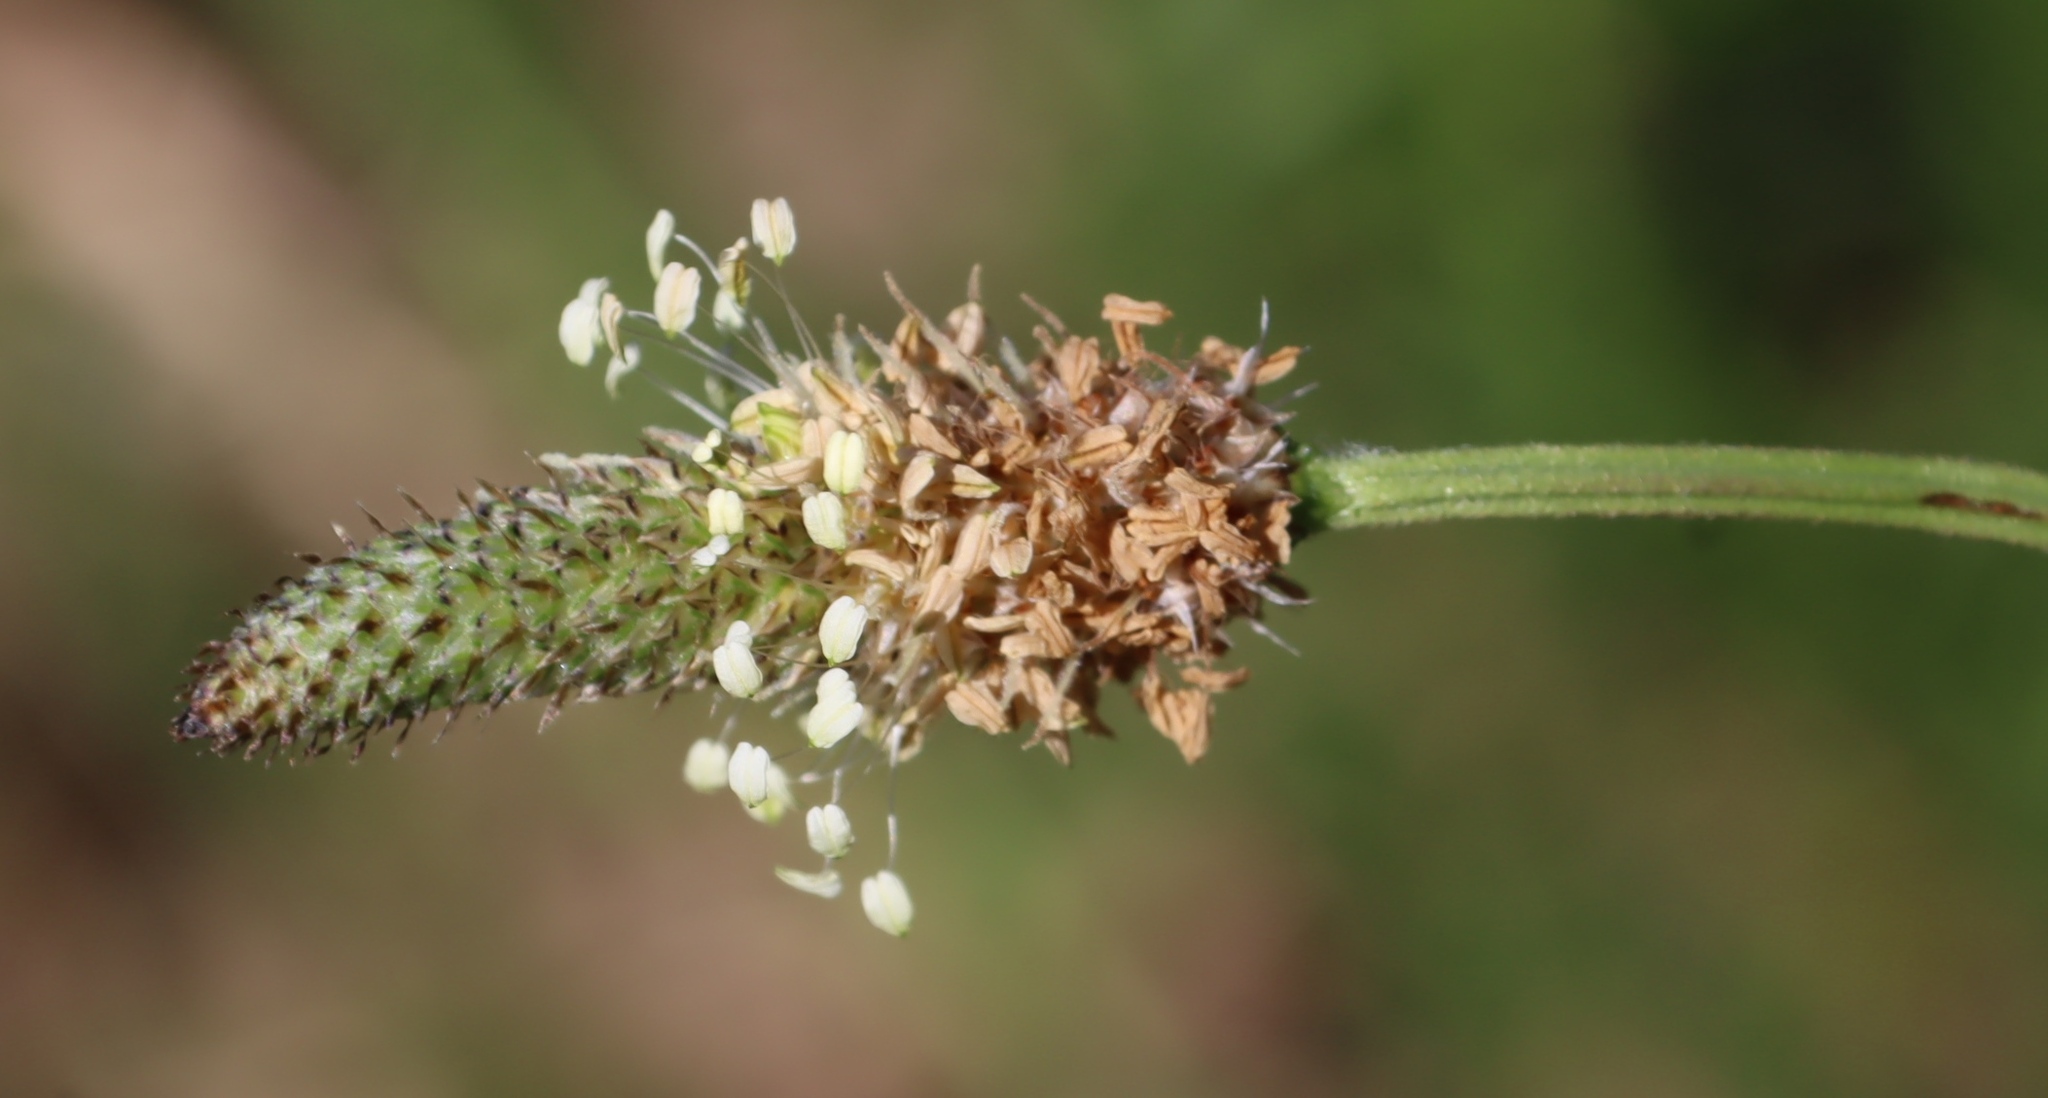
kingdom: Plantae
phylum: Tracheophyta
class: Magnoliopsida
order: Lamiales
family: Plantaginaceae
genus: Plantago
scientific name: Plantago lanceolata
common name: Ribwort plantain
